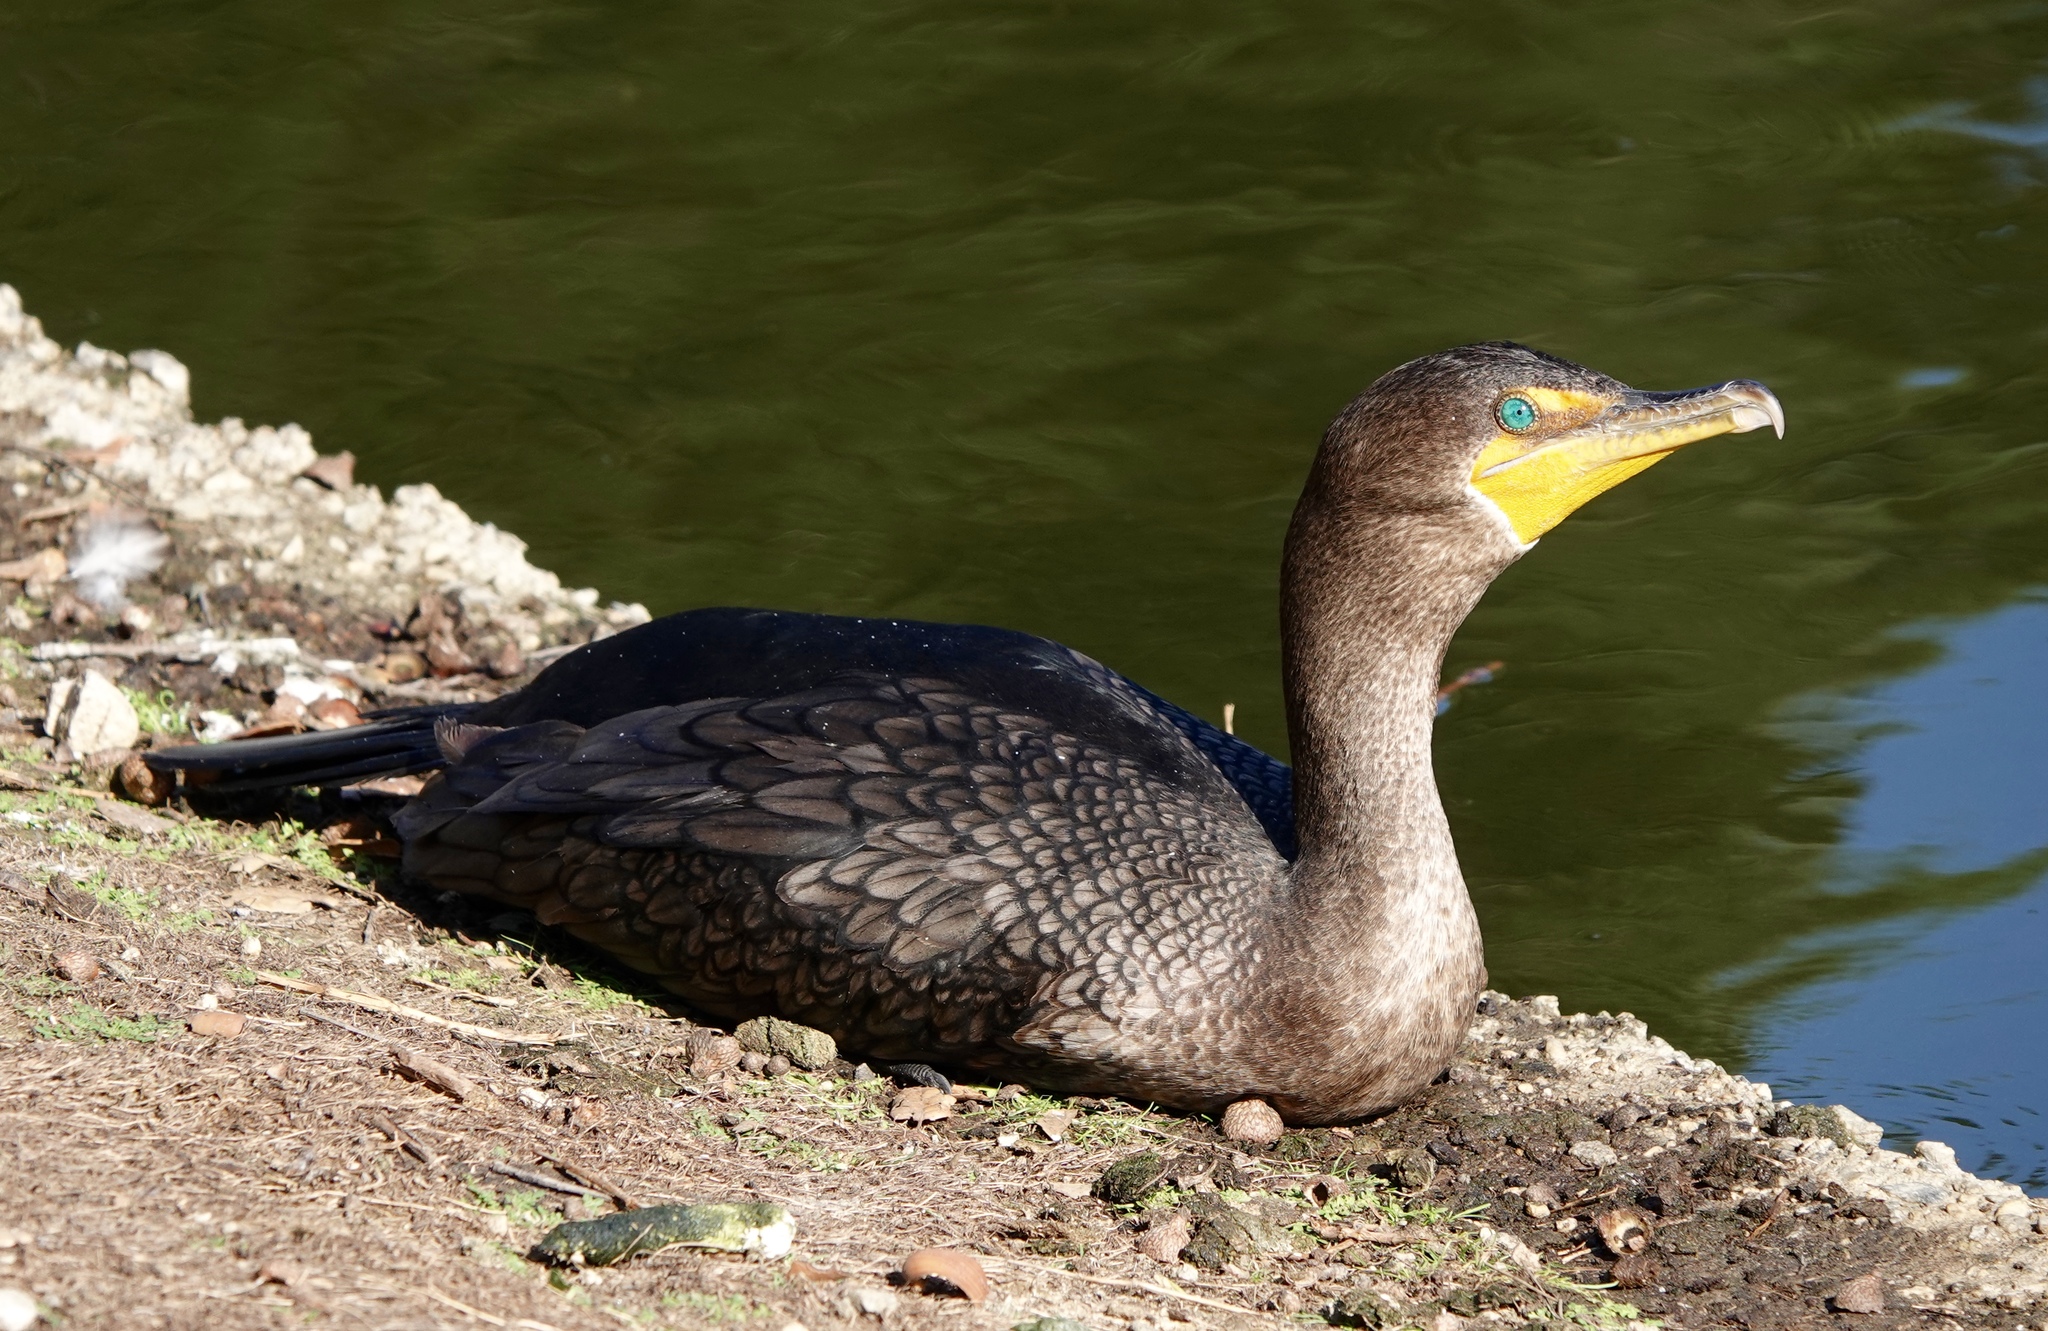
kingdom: Animalia
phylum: Chordata
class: Aves
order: Suliformes
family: Phalacrocoracidae
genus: Phalacrocorax
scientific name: Phalacrocorax auritus
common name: Double-crested cormorant
